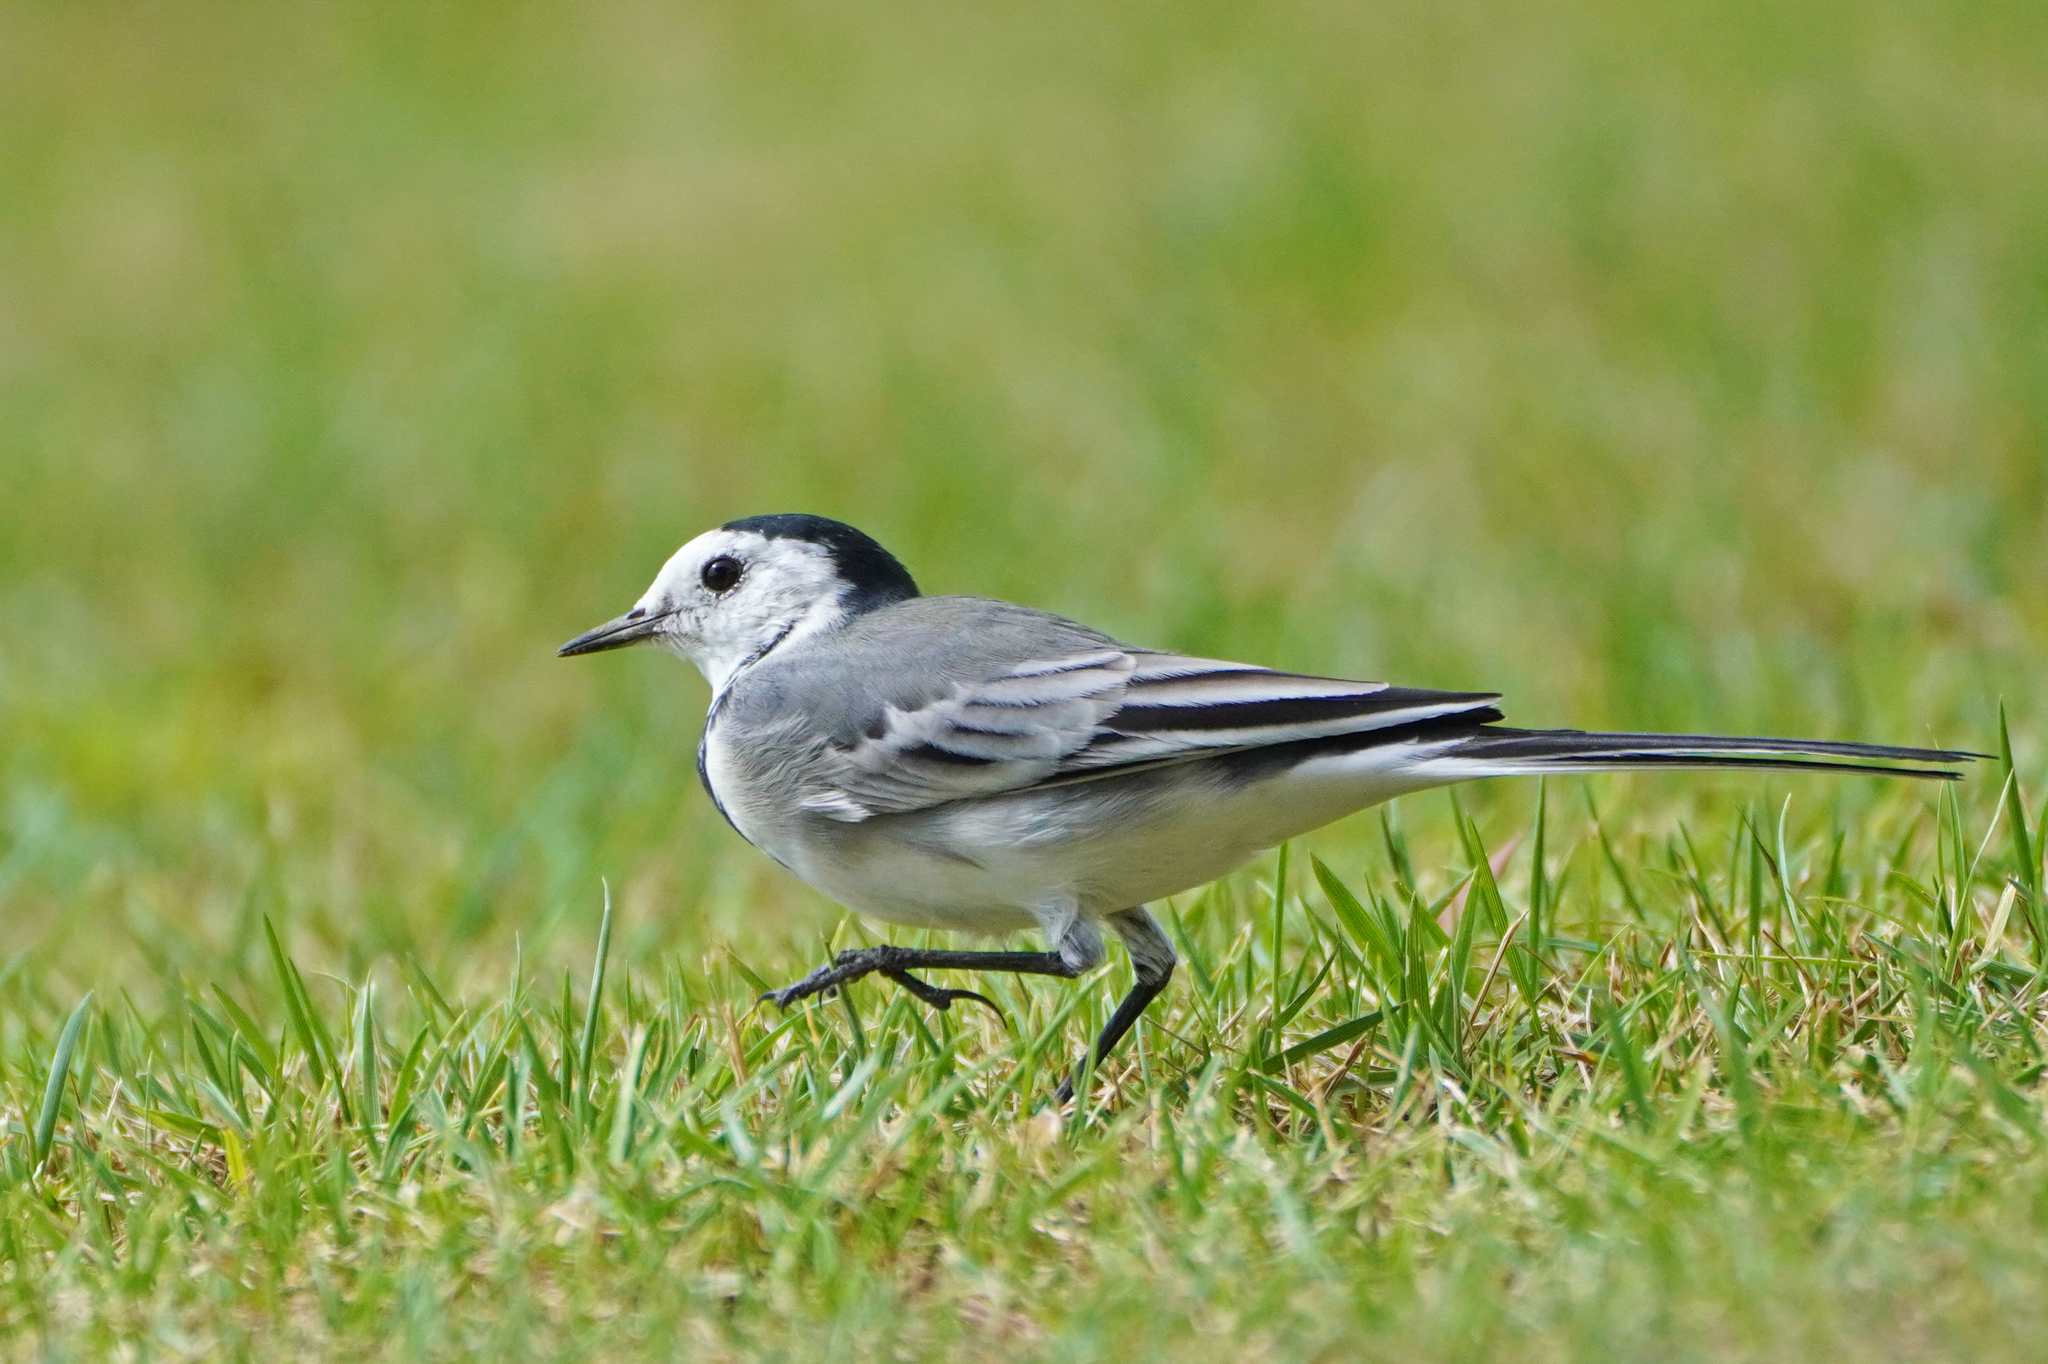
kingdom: Animalia
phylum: Chordata
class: Aves
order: Passeriformes
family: Motacillidae
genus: Motacilla
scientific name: Motacilla alba
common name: White wagtail
